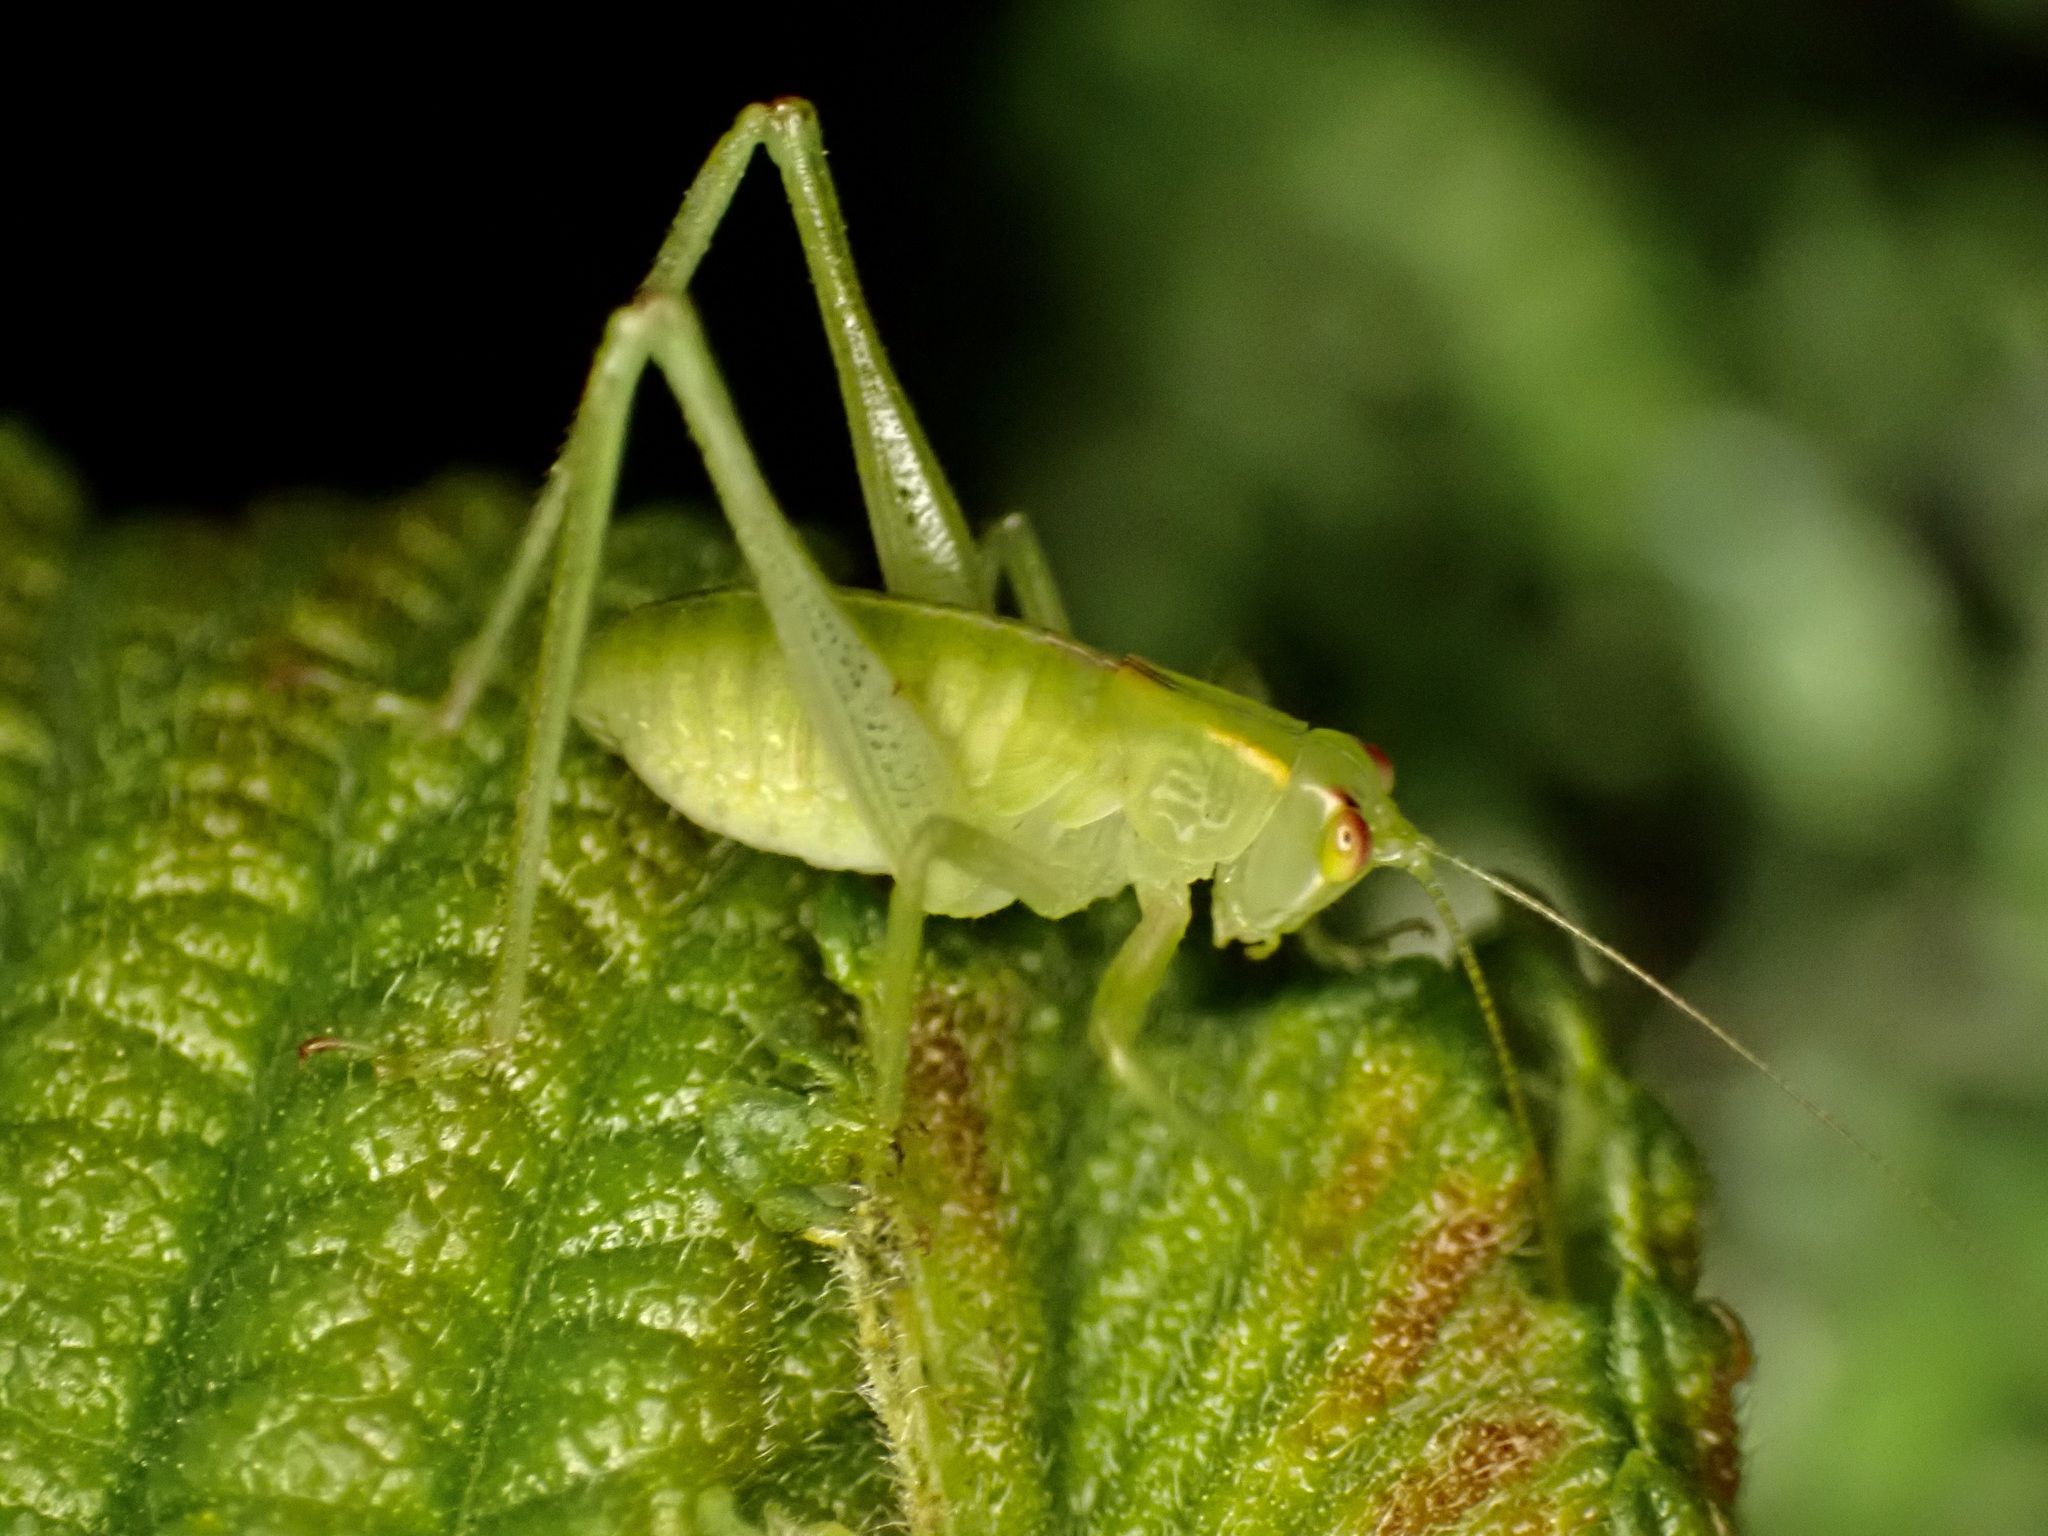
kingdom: Animalia
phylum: Arthropoda
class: Insecta
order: Orthoptera
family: Tettigoniidae
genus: Caedicia
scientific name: Caedicia simplex
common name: Common garden katydid
